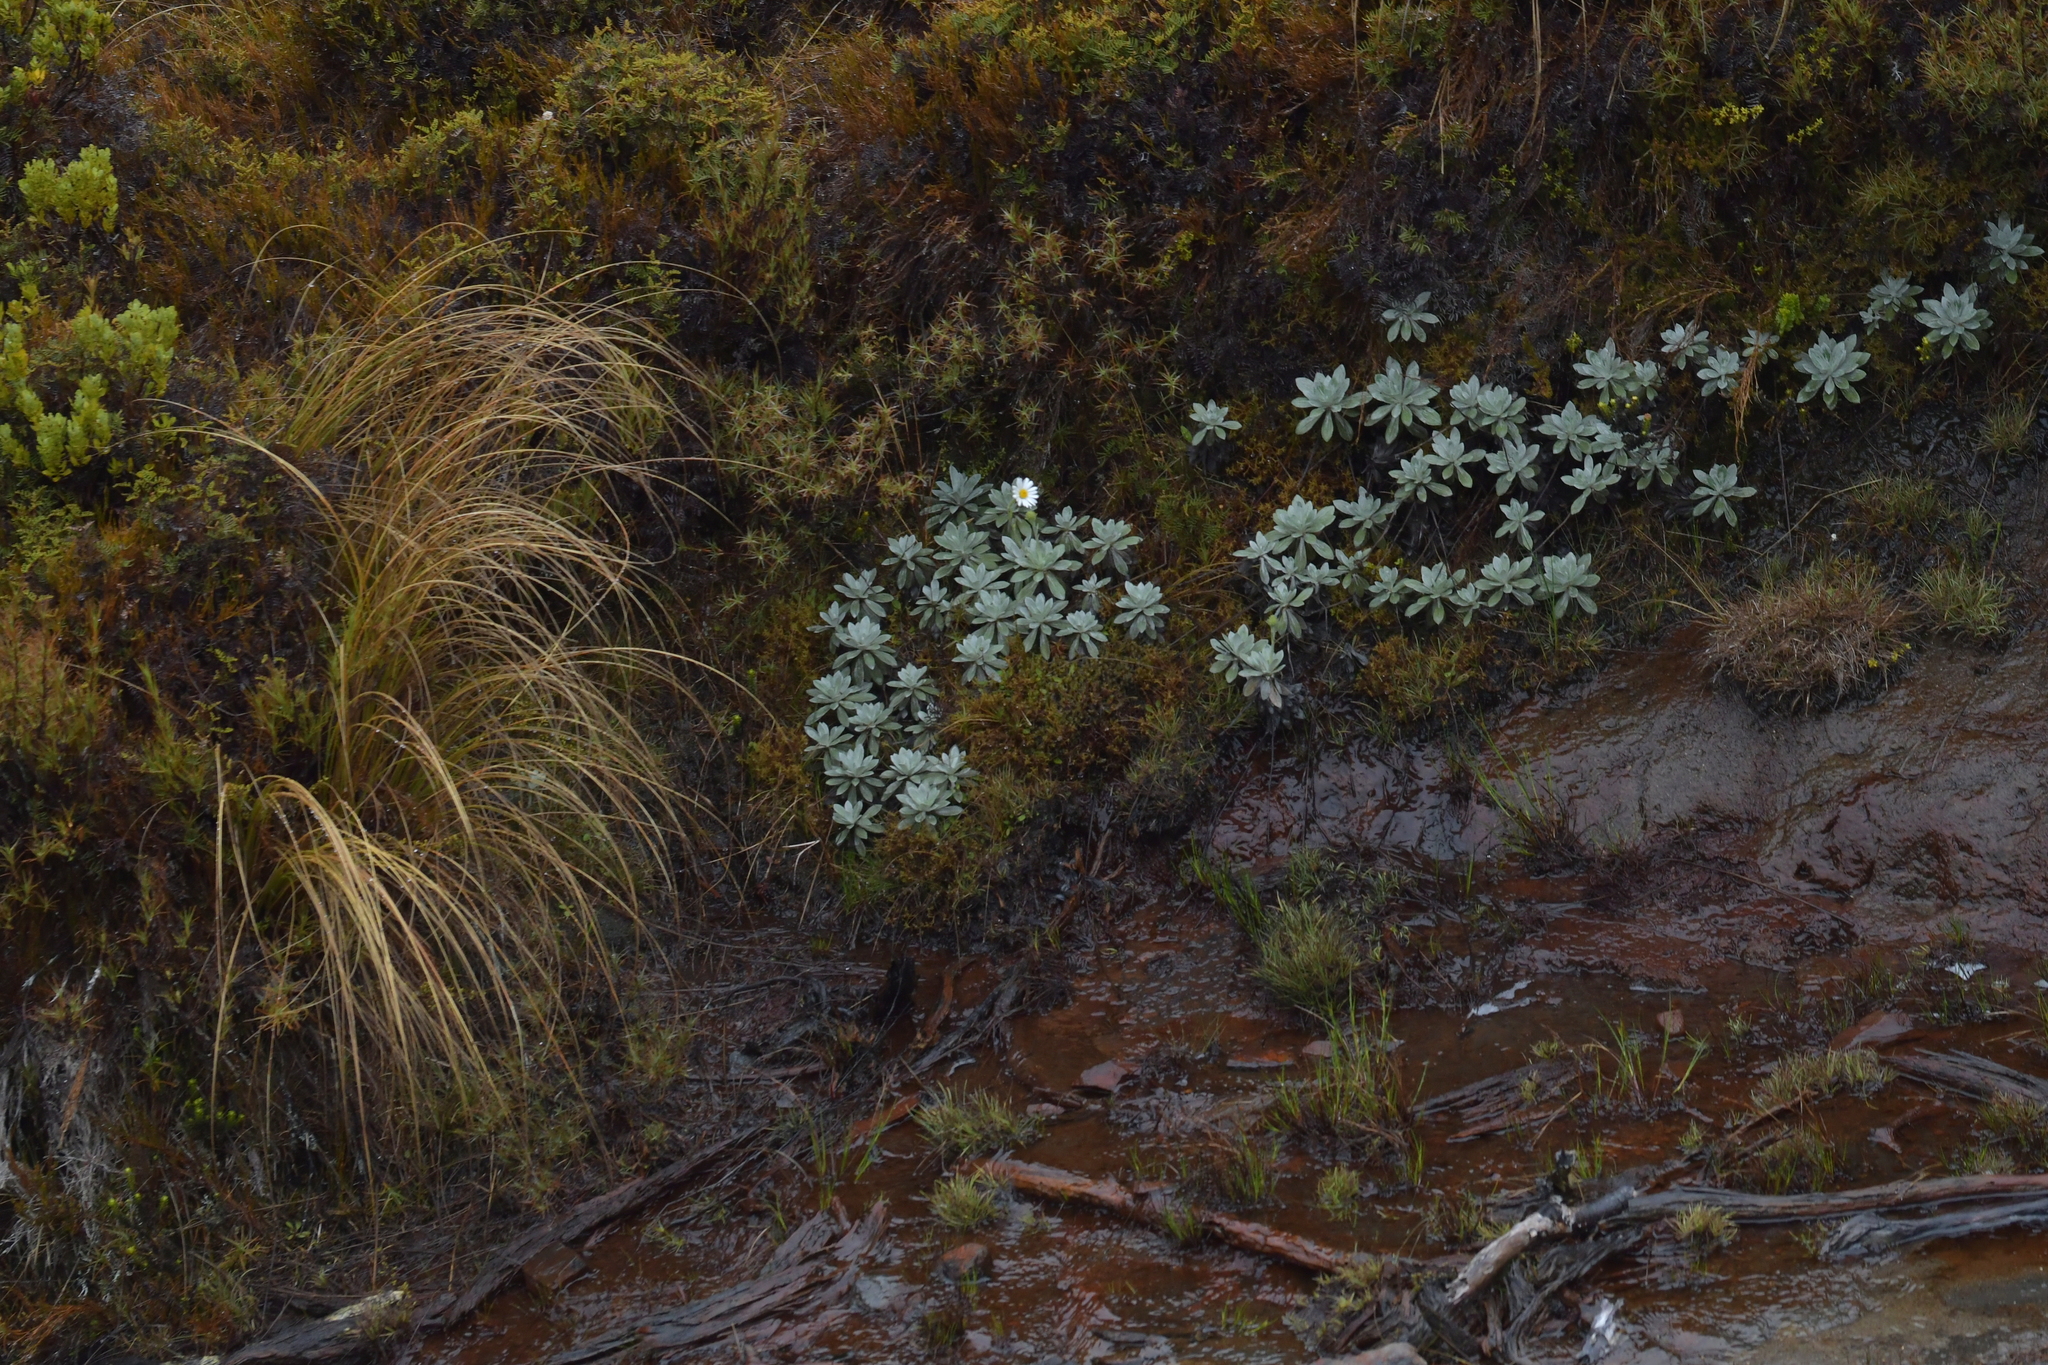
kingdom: Plantae
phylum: Tracheophyta
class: Magnoliopsida
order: Asterales
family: Asteraceae
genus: Celmisia
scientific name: Celmisia incana
